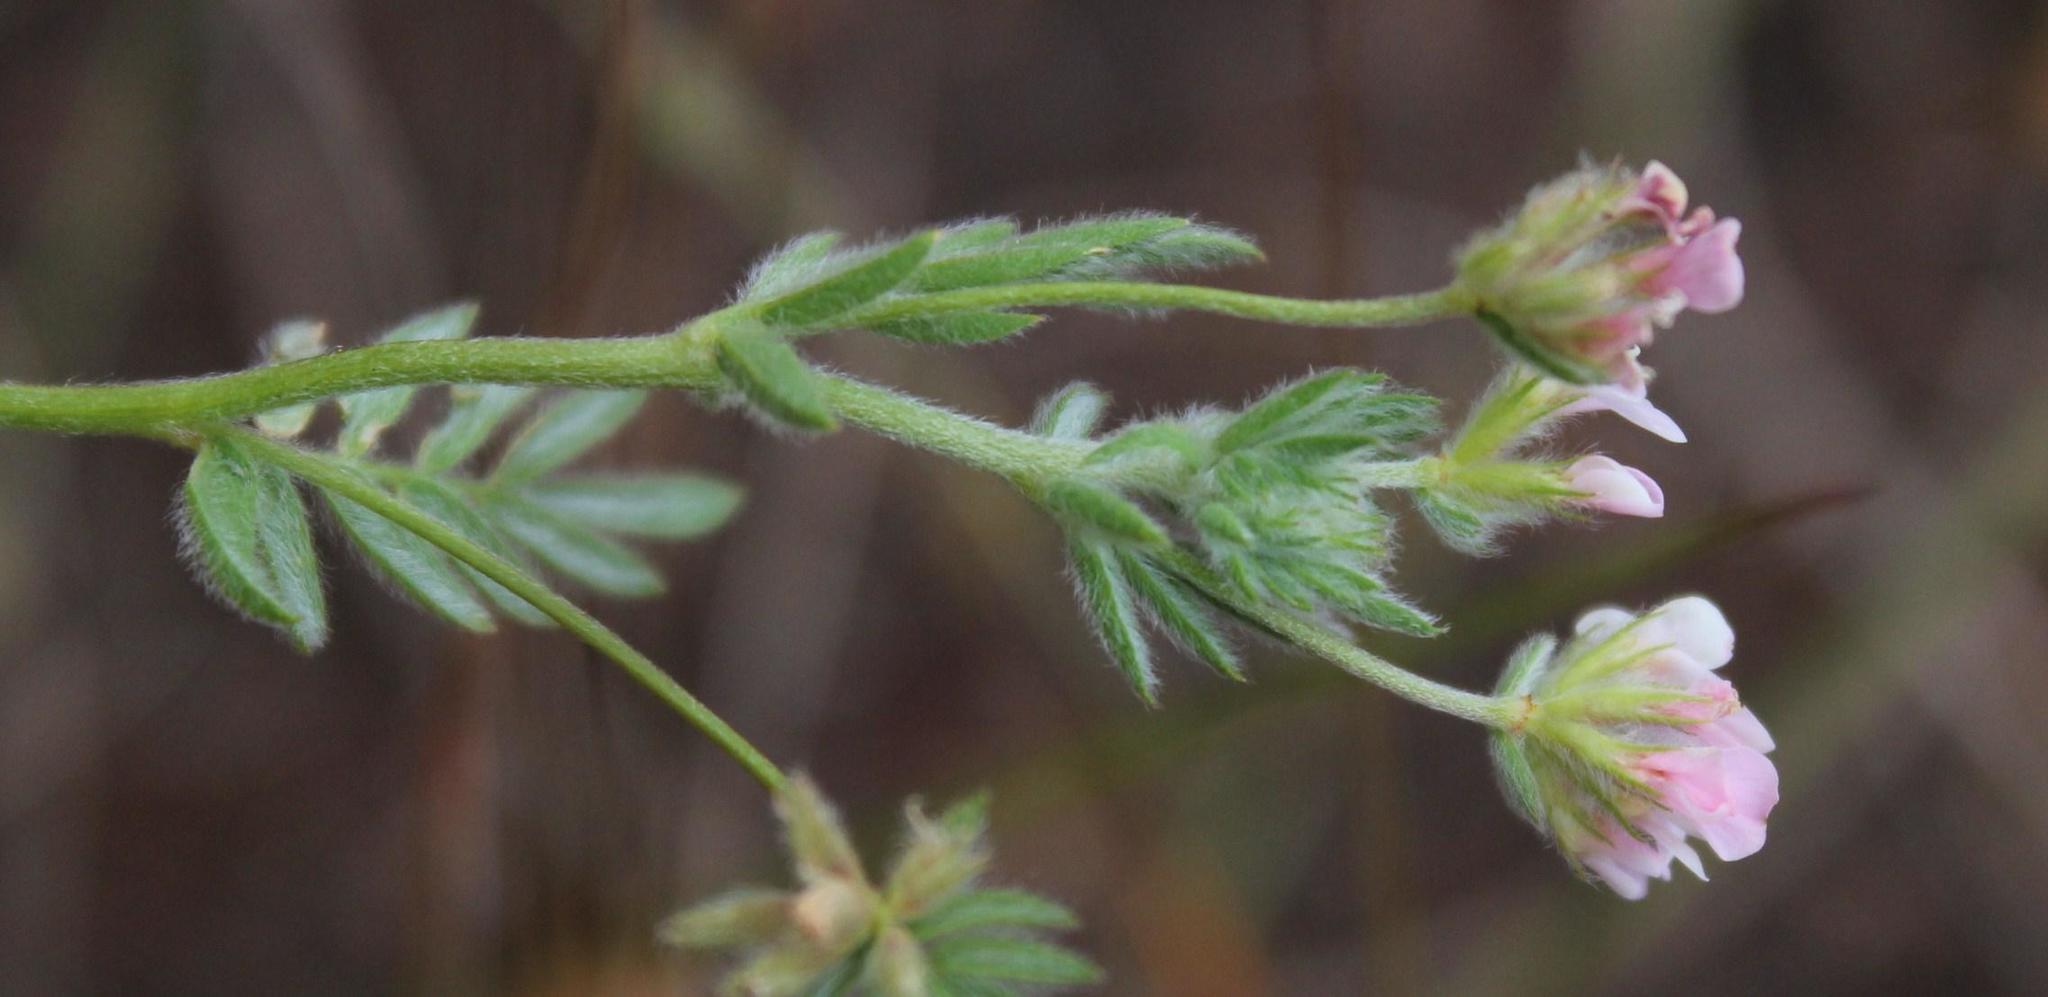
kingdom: Plantae
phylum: Tracheophyta
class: Magnoliopsida
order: Fabales
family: Fabaceae
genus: Ornithopus
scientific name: Ornithopus sativus
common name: Serradella
